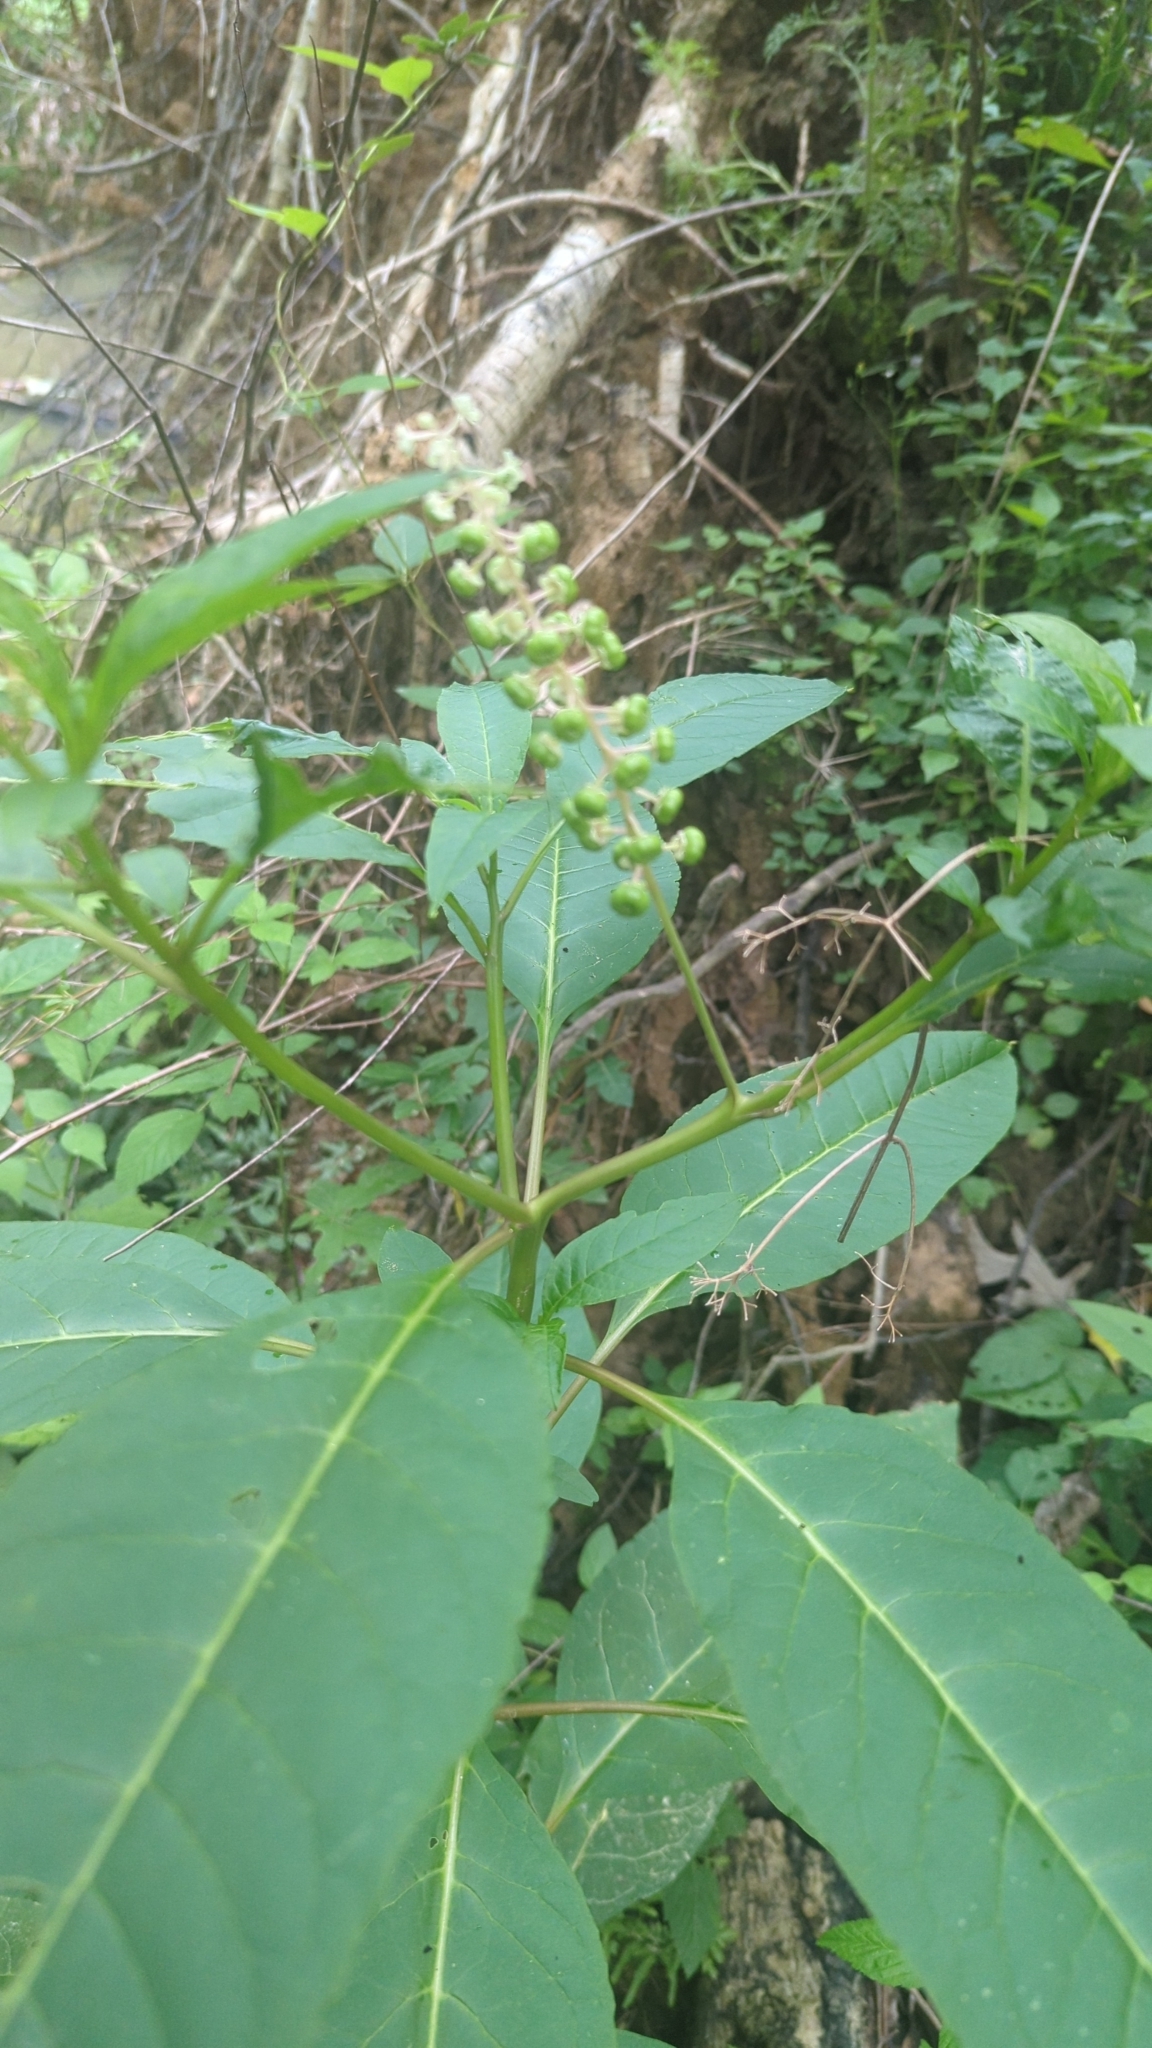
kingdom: Plantae
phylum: Tracheophyta
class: Magnoliopsida
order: Caryophyllales
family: Phytolaccaceae
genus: Phytolacca
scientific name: Phytolacca americana
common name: American pokeweed
